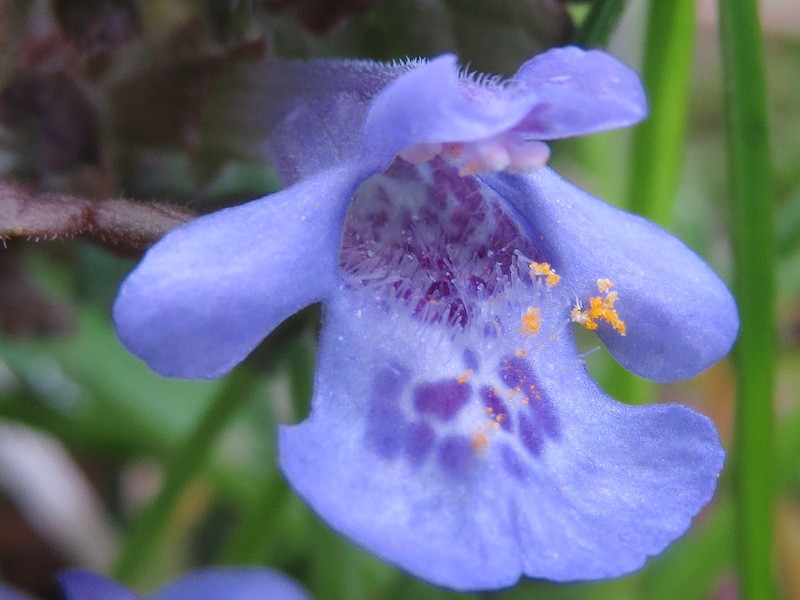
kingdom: Plantae
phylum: Tracheophyta
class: Magnoliopsida
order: Lamiales
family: Lamiaceae
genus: Glechoma
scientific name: Glechoma hederacea
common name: Ground ivy
